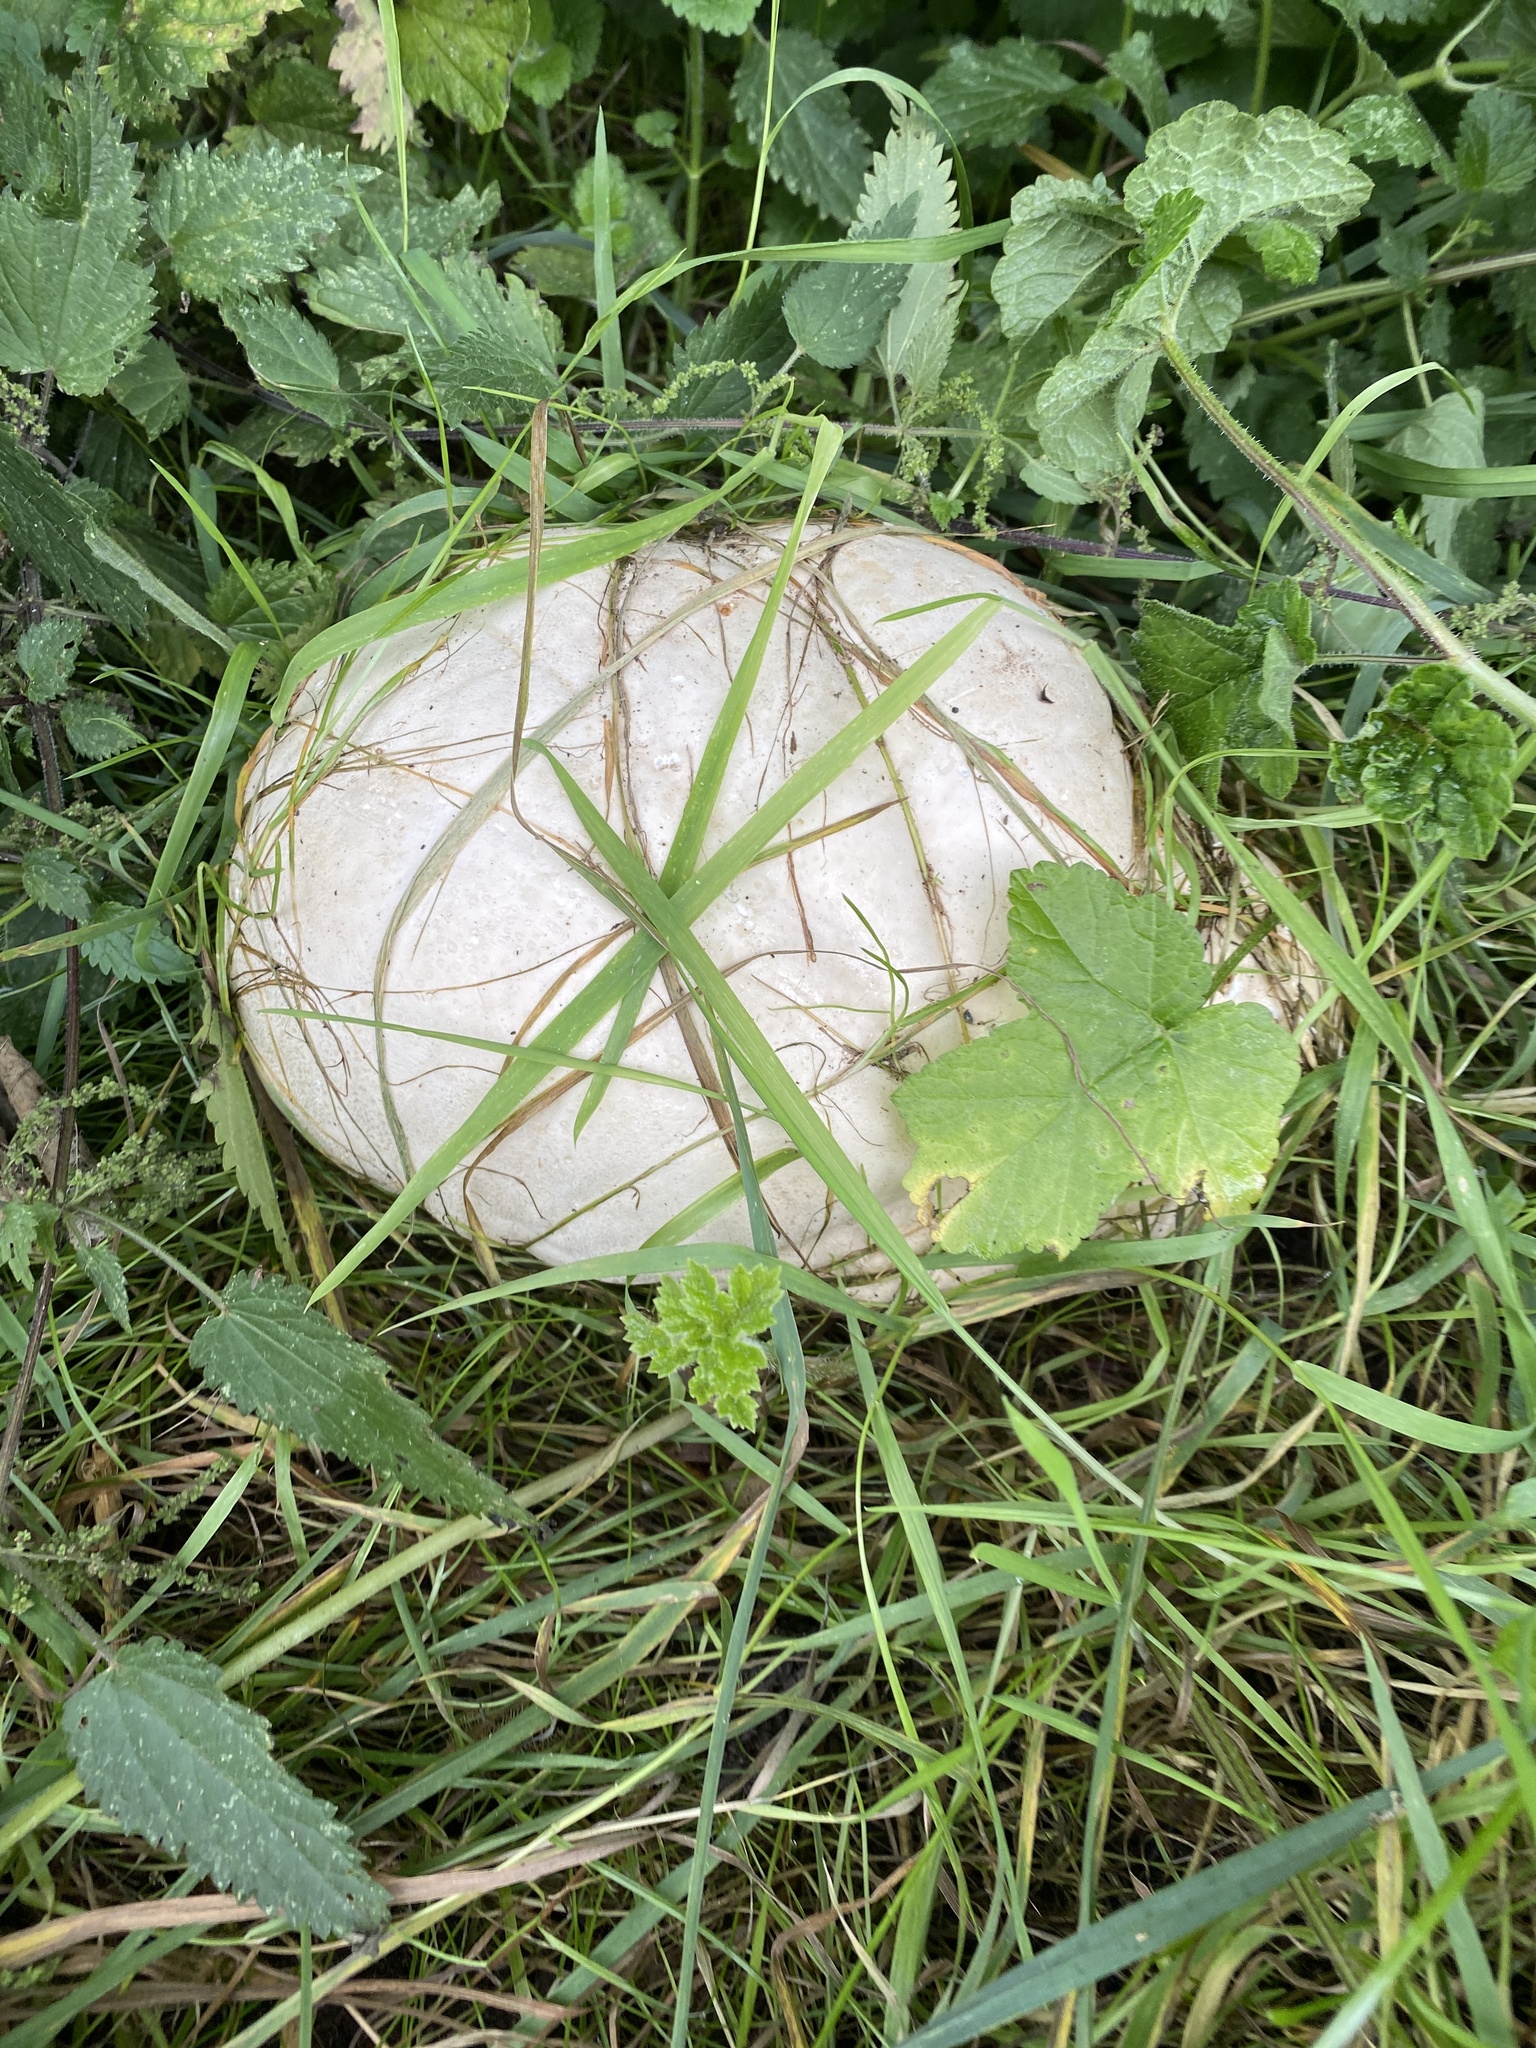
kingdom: Fungi
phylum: Basidiomycota
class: Agaricomycetes
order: Agaricales
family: Lycoperdaceae
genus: Calvatia
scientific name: Calvatia gigantea
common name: Giant puffball
